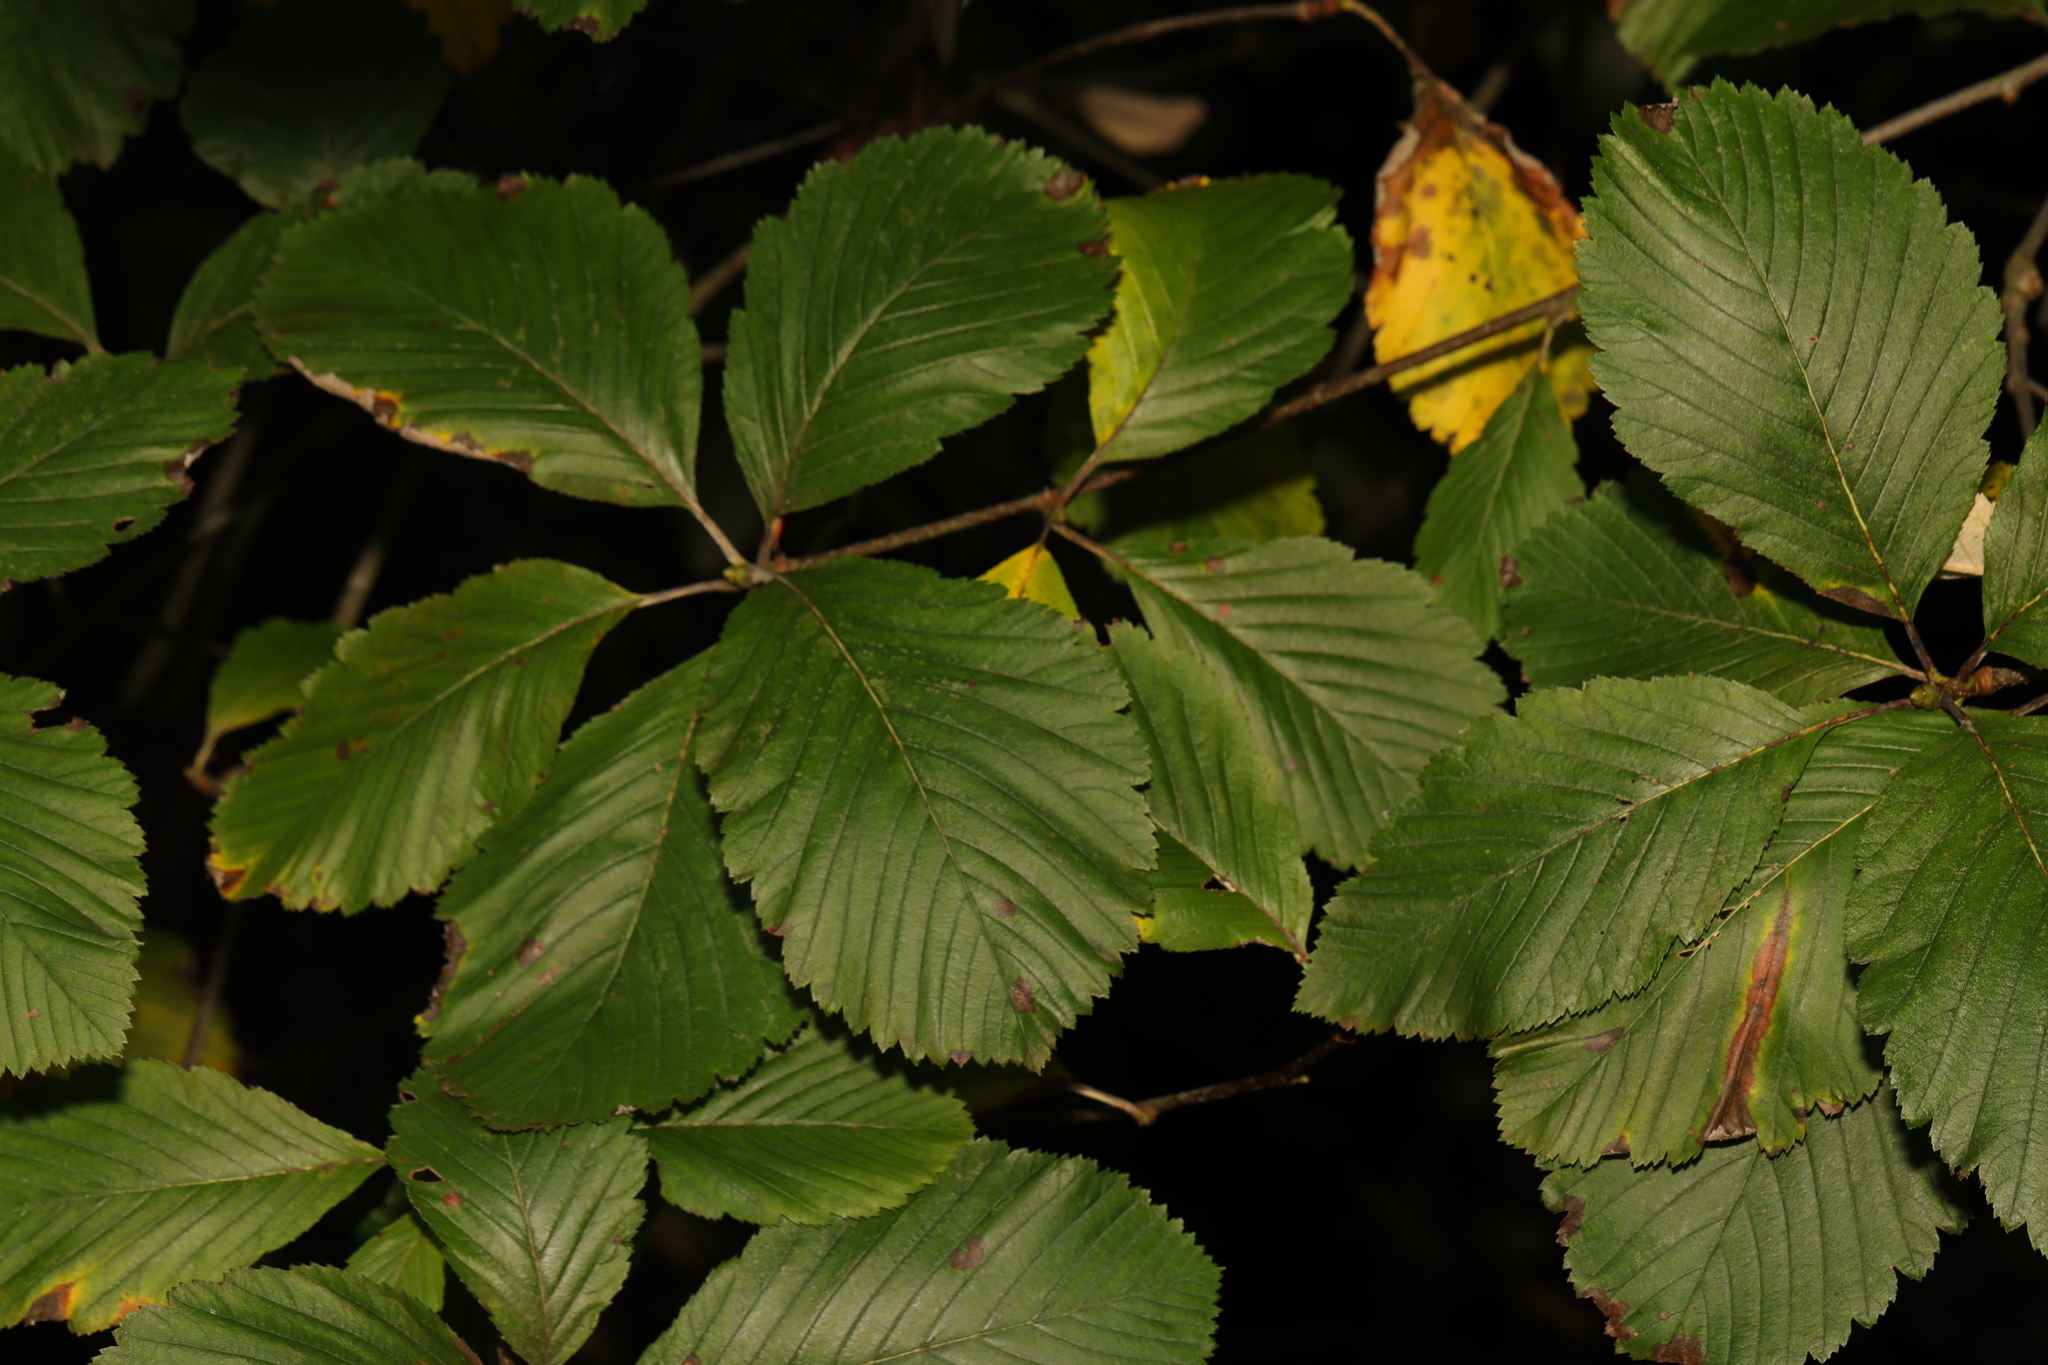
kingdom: Plantae
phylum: Tracheophyta
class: Magnoliopsida
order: Rosales
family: Rosaceae
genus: Aria
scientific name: Aria edulis
